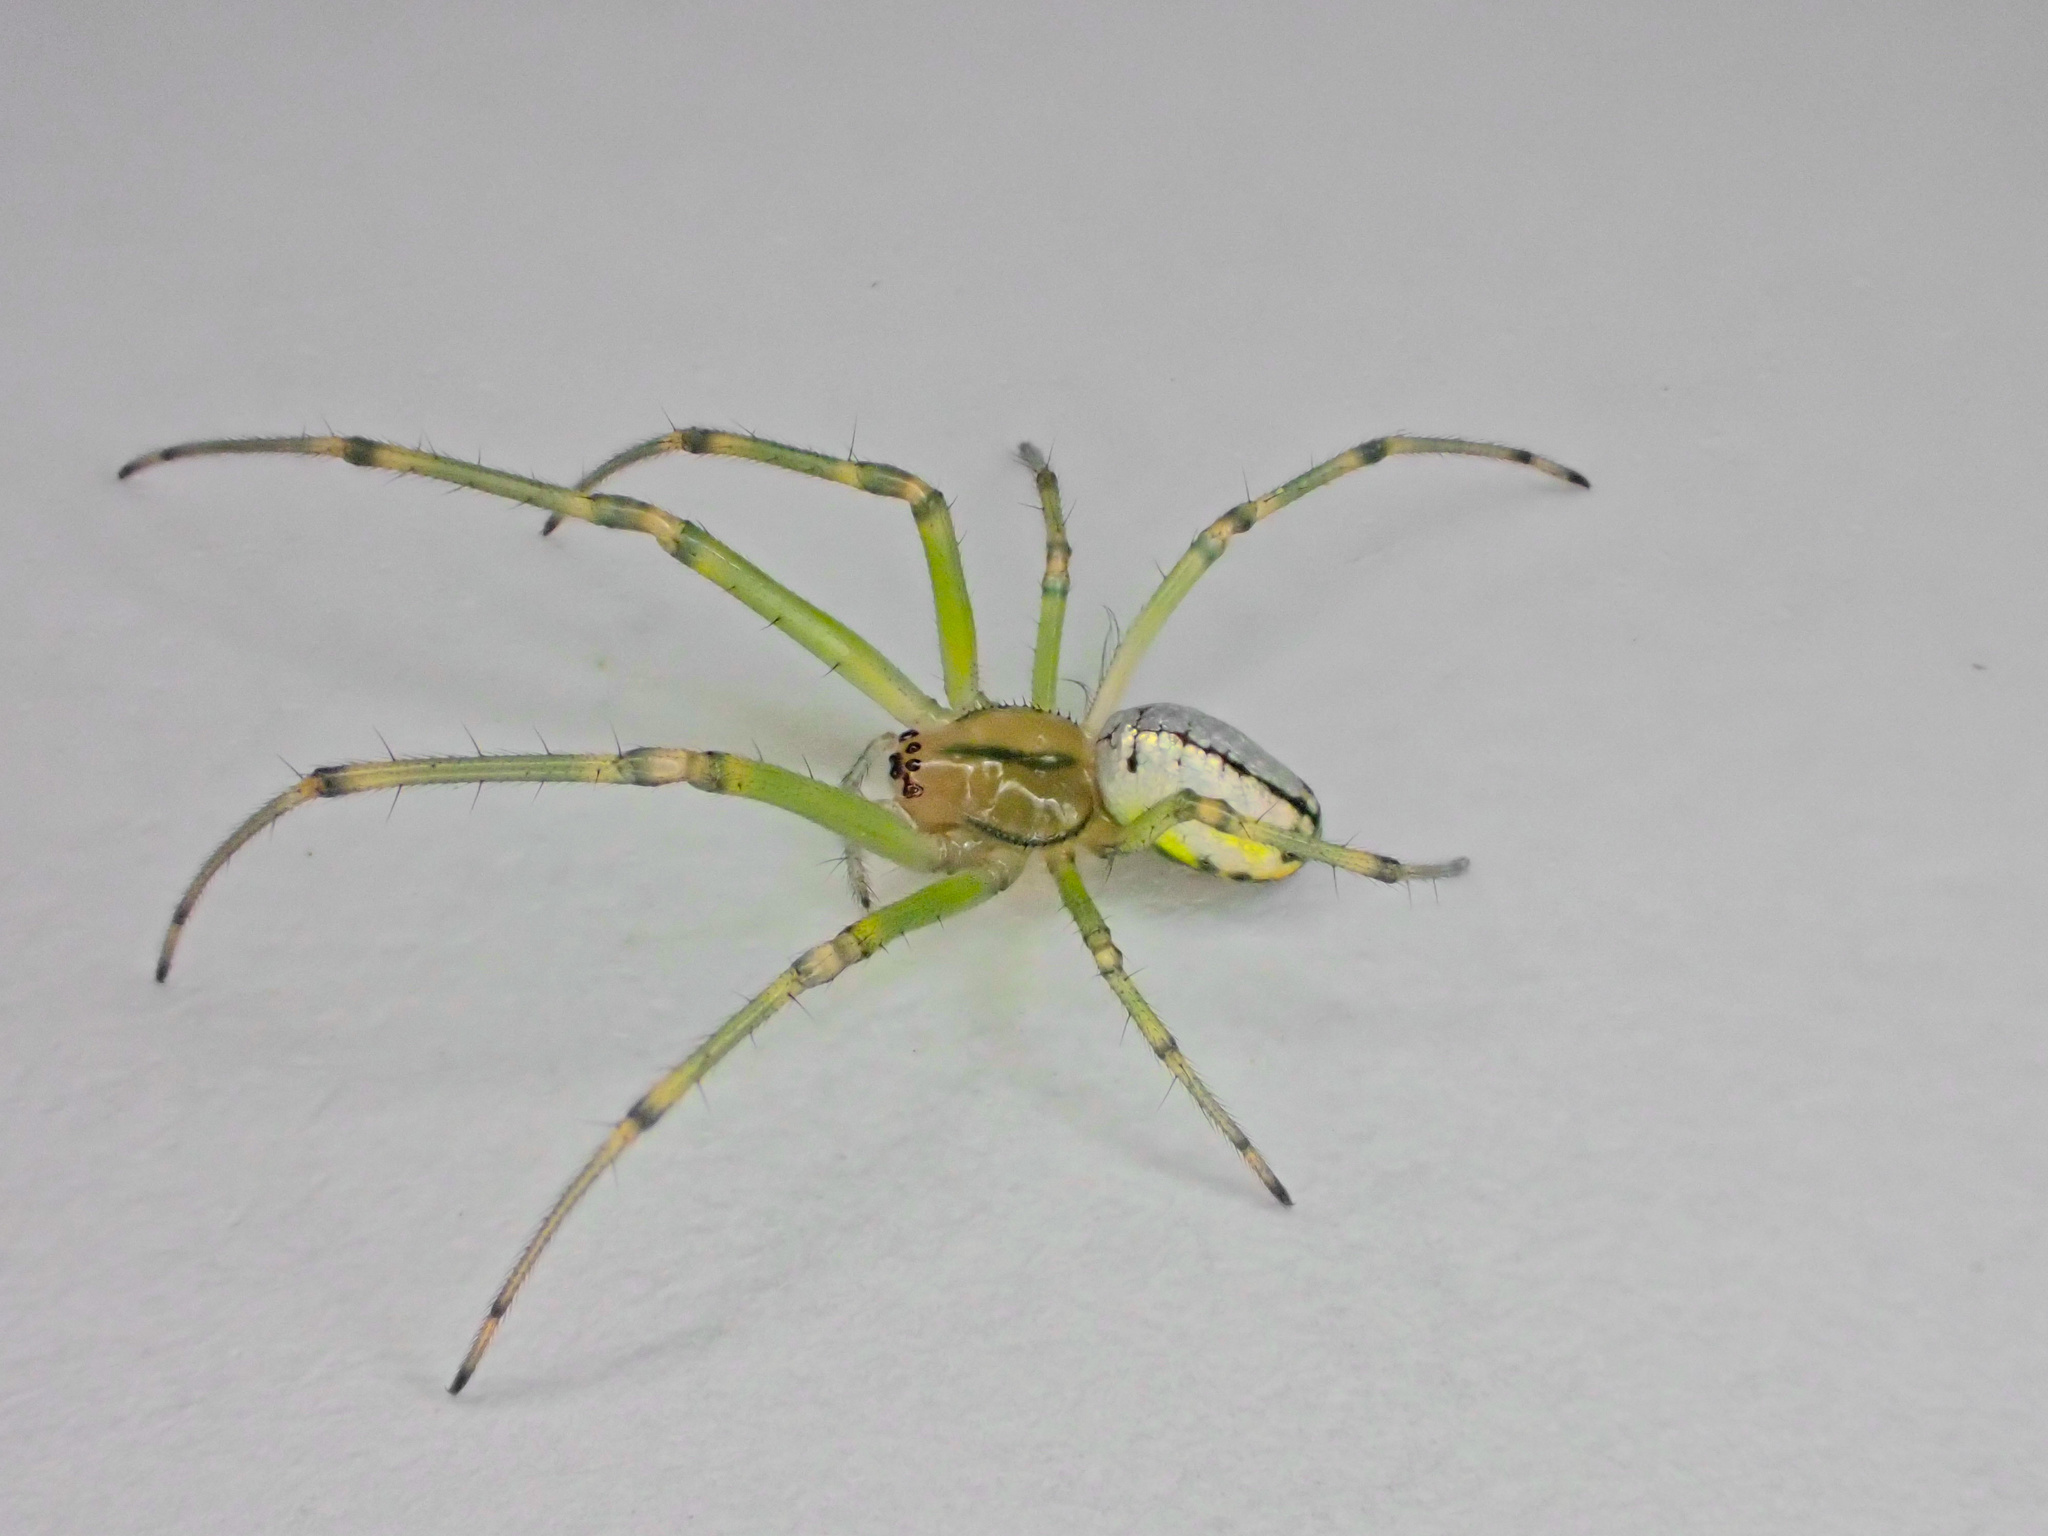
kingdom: Animalia
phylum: Arthropoda
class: Arachnida
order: Araneae
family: Tetragnathidae
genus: Leucauge
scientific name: Leucauge venusta
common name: Longjawed orb weavers
